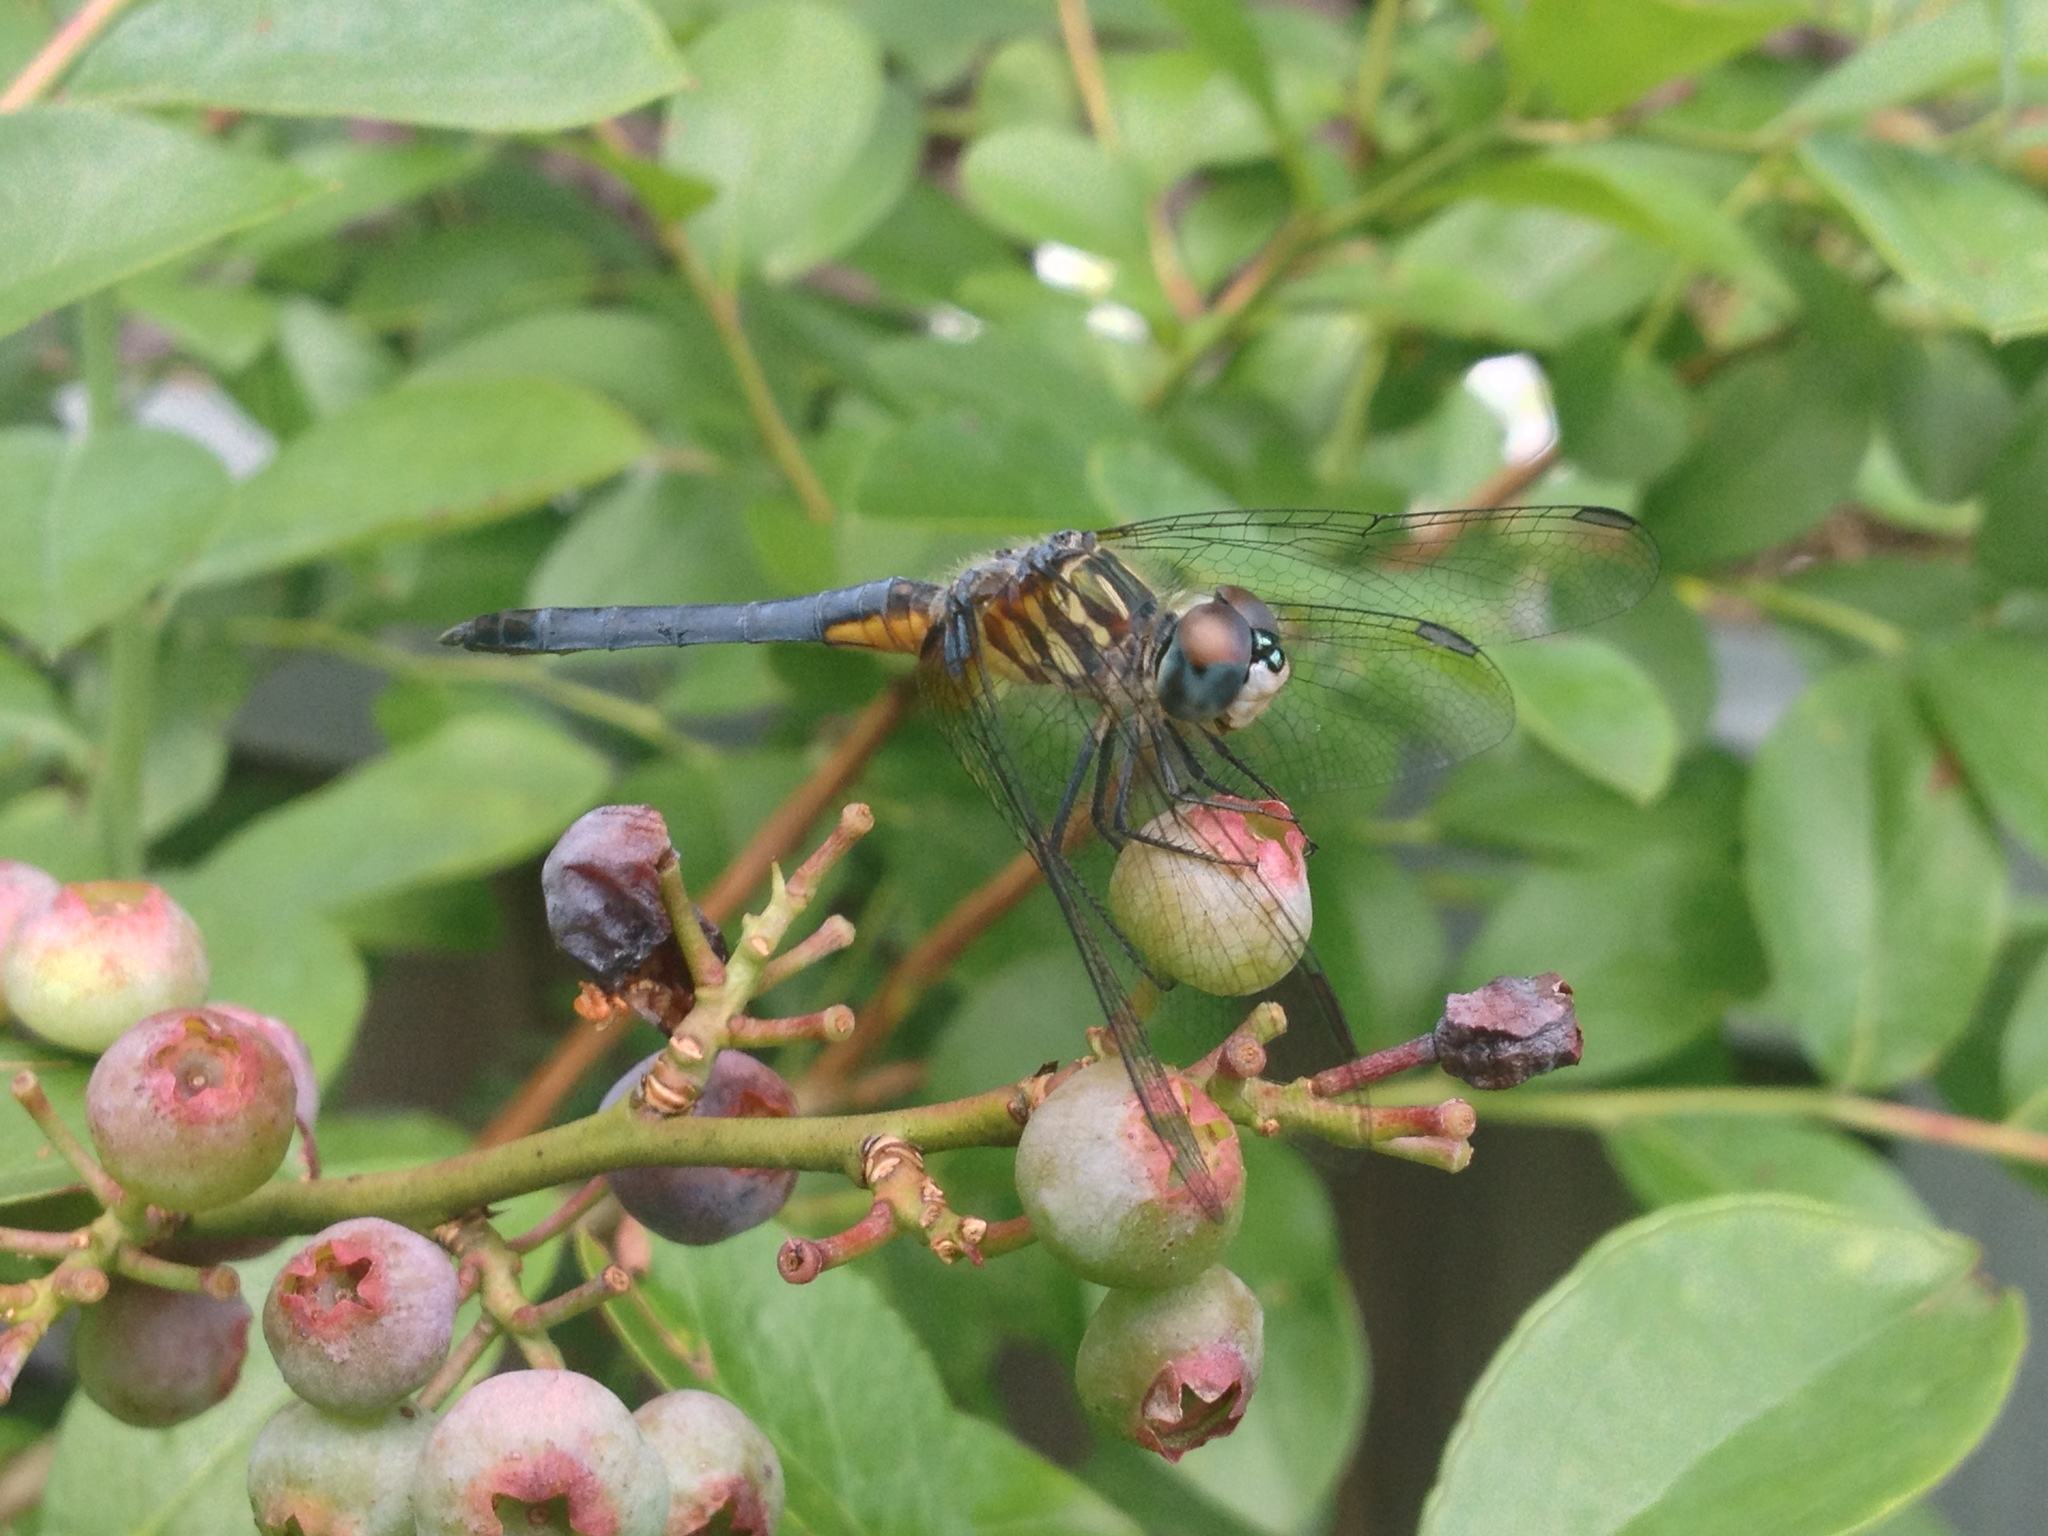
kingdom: Animalia
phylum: Arthropoda
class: Insecta
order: Odonata
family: Libellulidae
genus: Pachydiplax
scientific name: Pachydiplax longipennis
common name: Blue dasher
